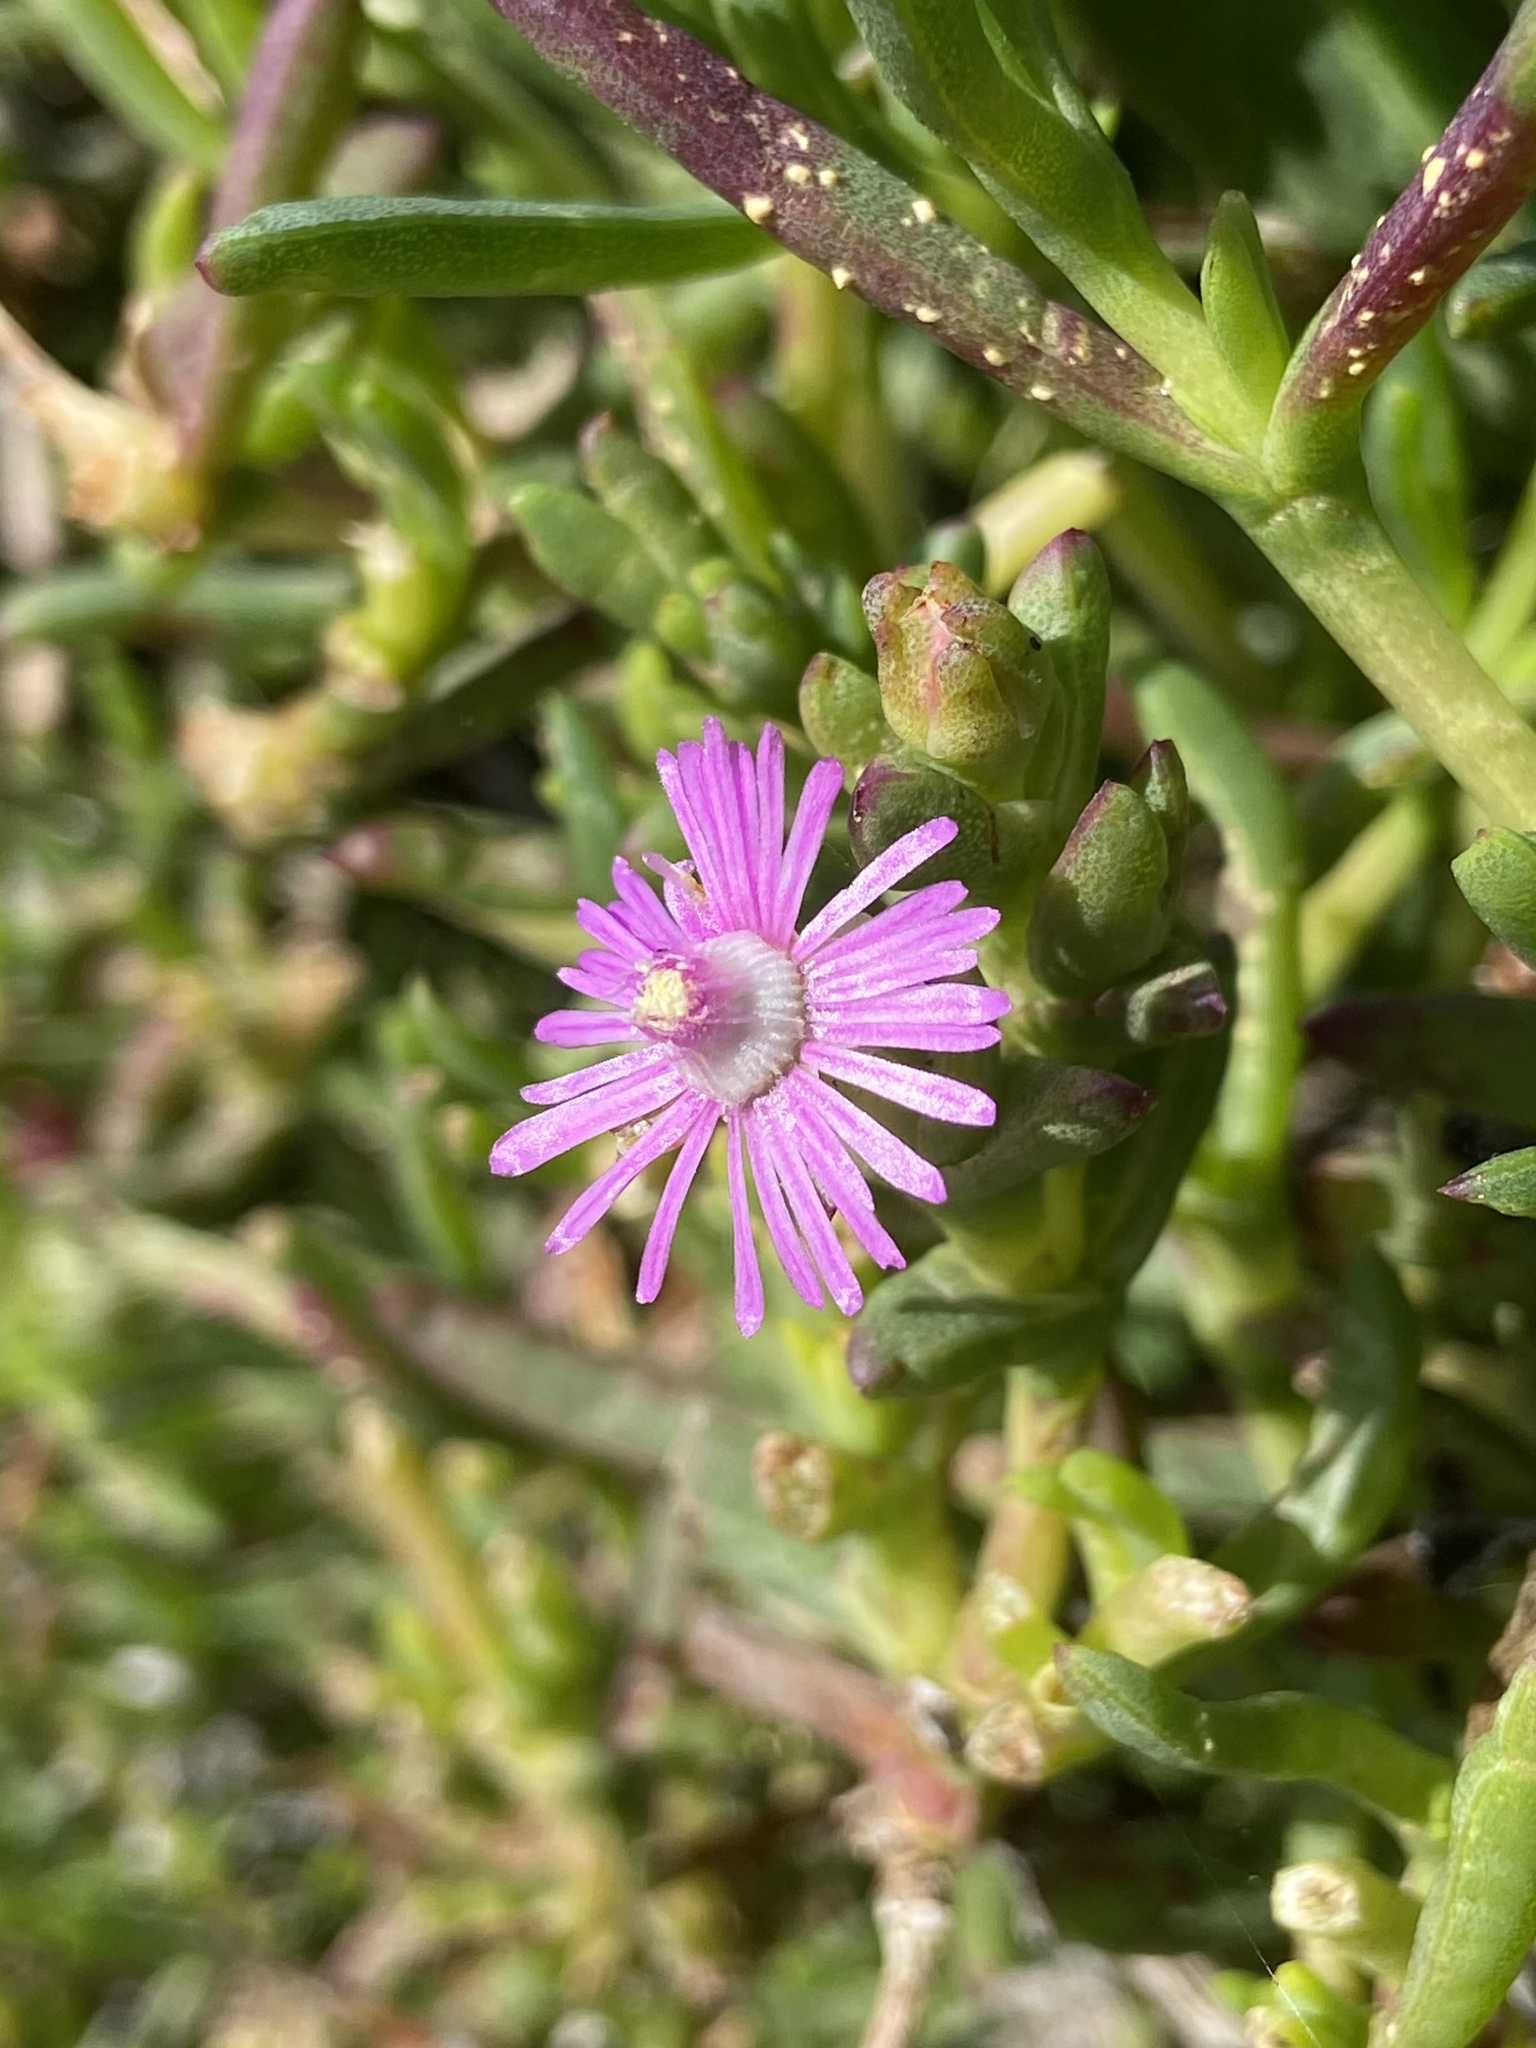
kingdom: Plantae
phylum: Tracheophyta
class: Magnoliopsida
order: Caryophyllales
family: Aizoaceae
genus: Ruschia
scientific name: Ruschia macowanii
